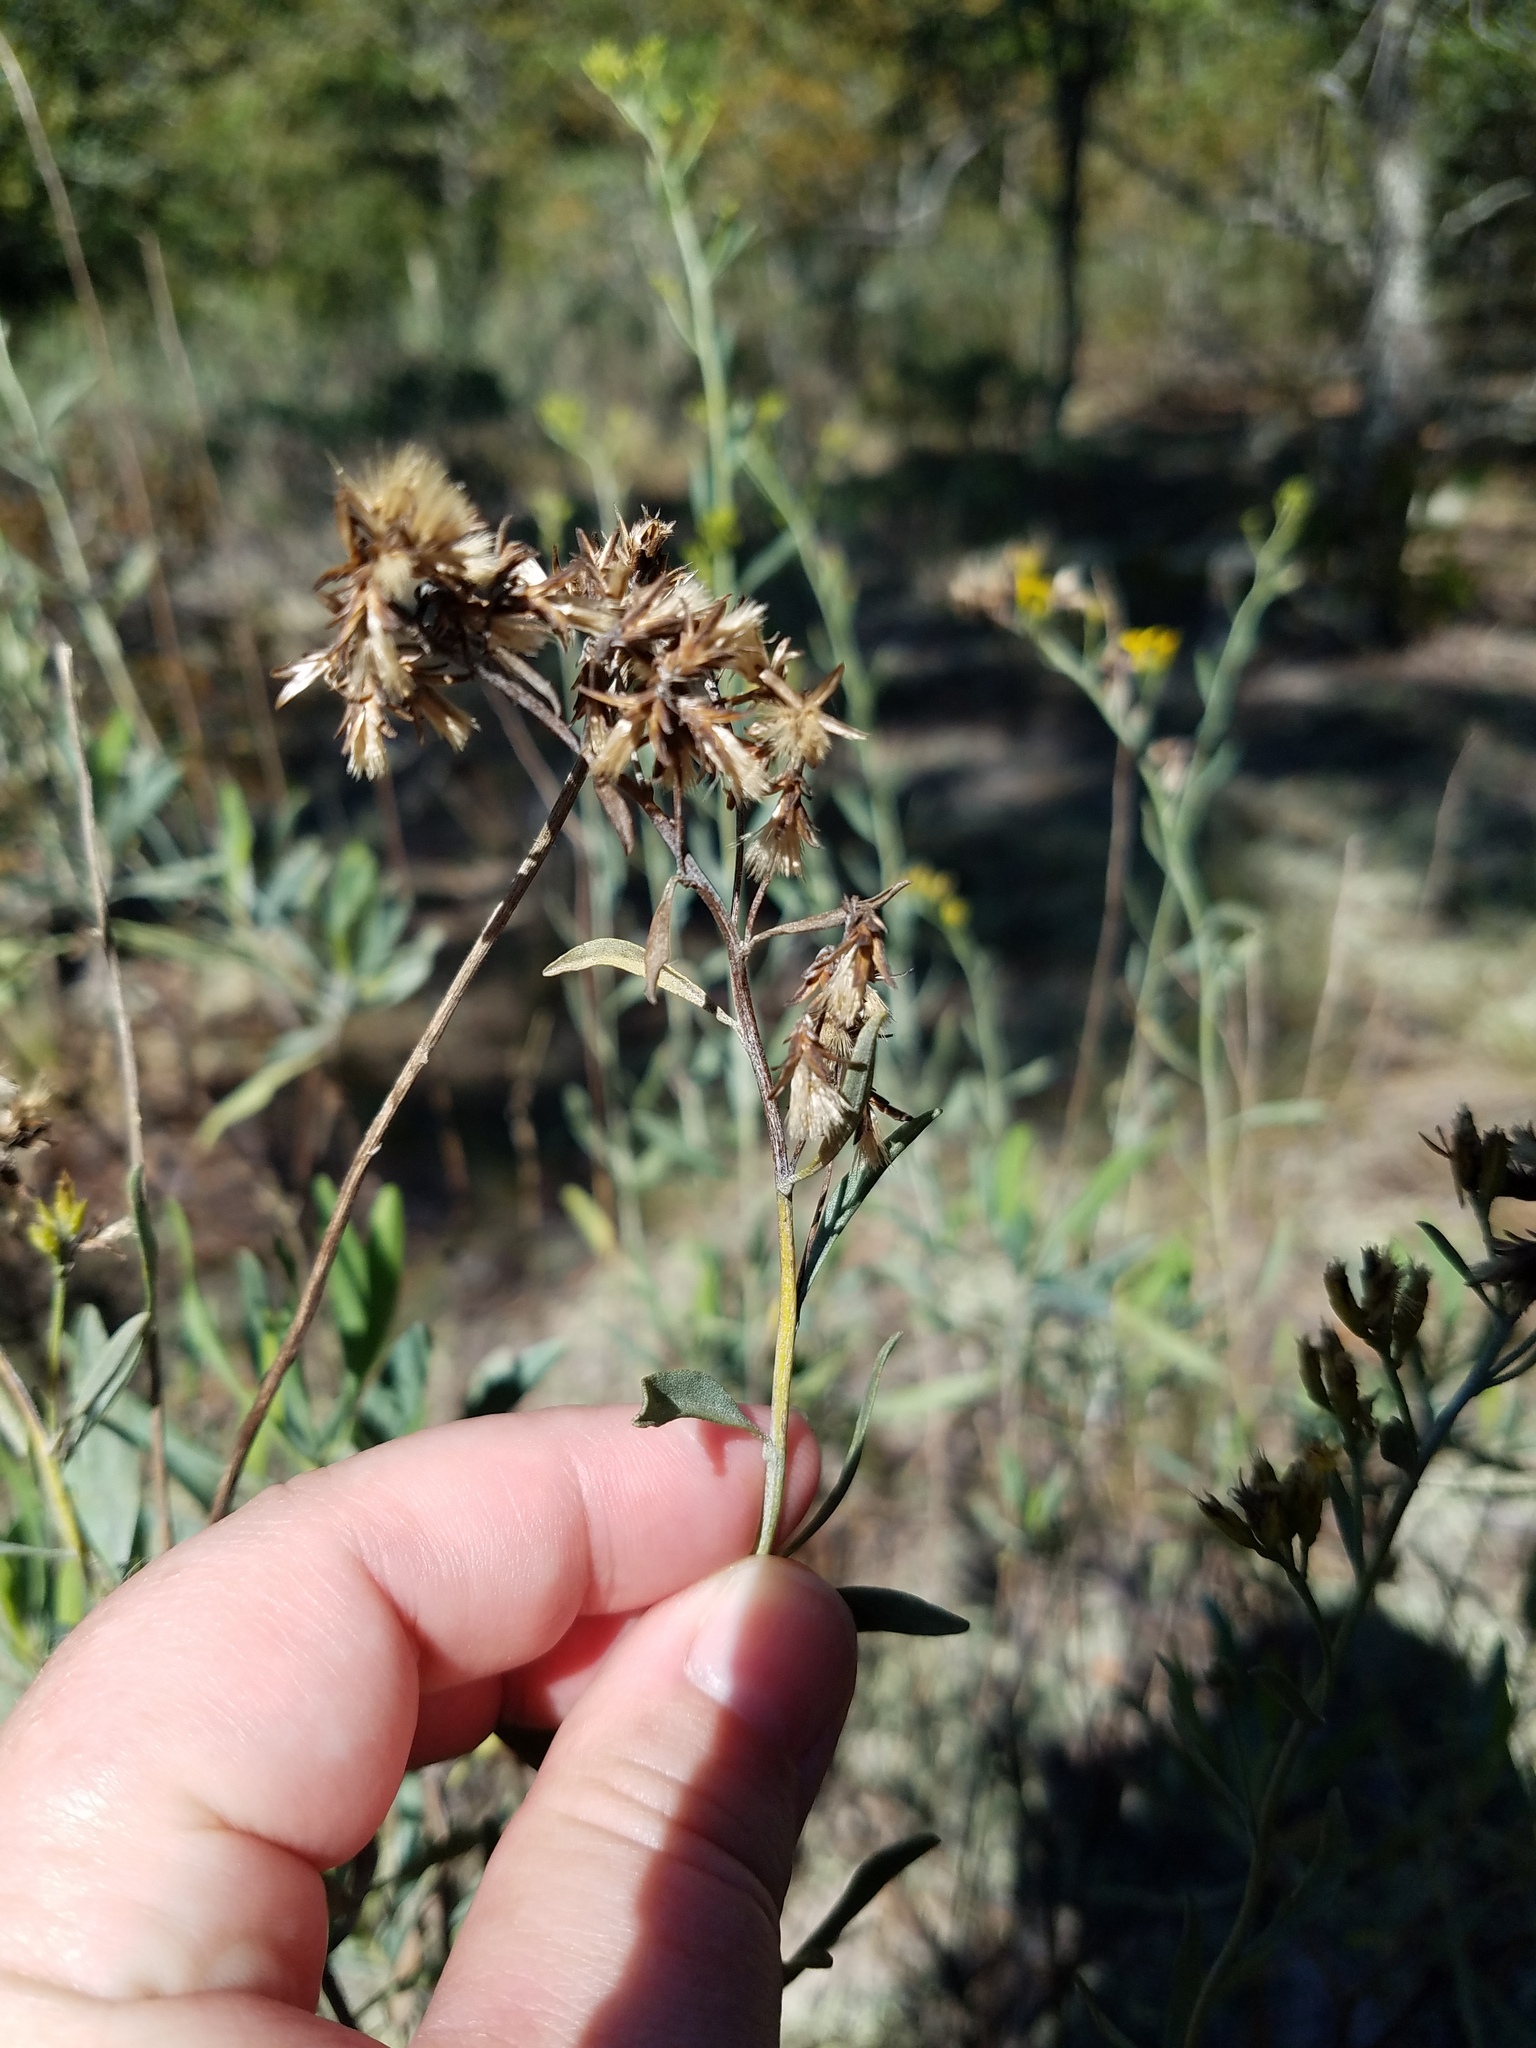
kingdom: Plantae
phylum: Tracheophyta
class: Magnoliopsida
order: Asterales
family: Asteraceae
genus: Chrysoma
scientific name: Chrysoma pauciflosculosa
